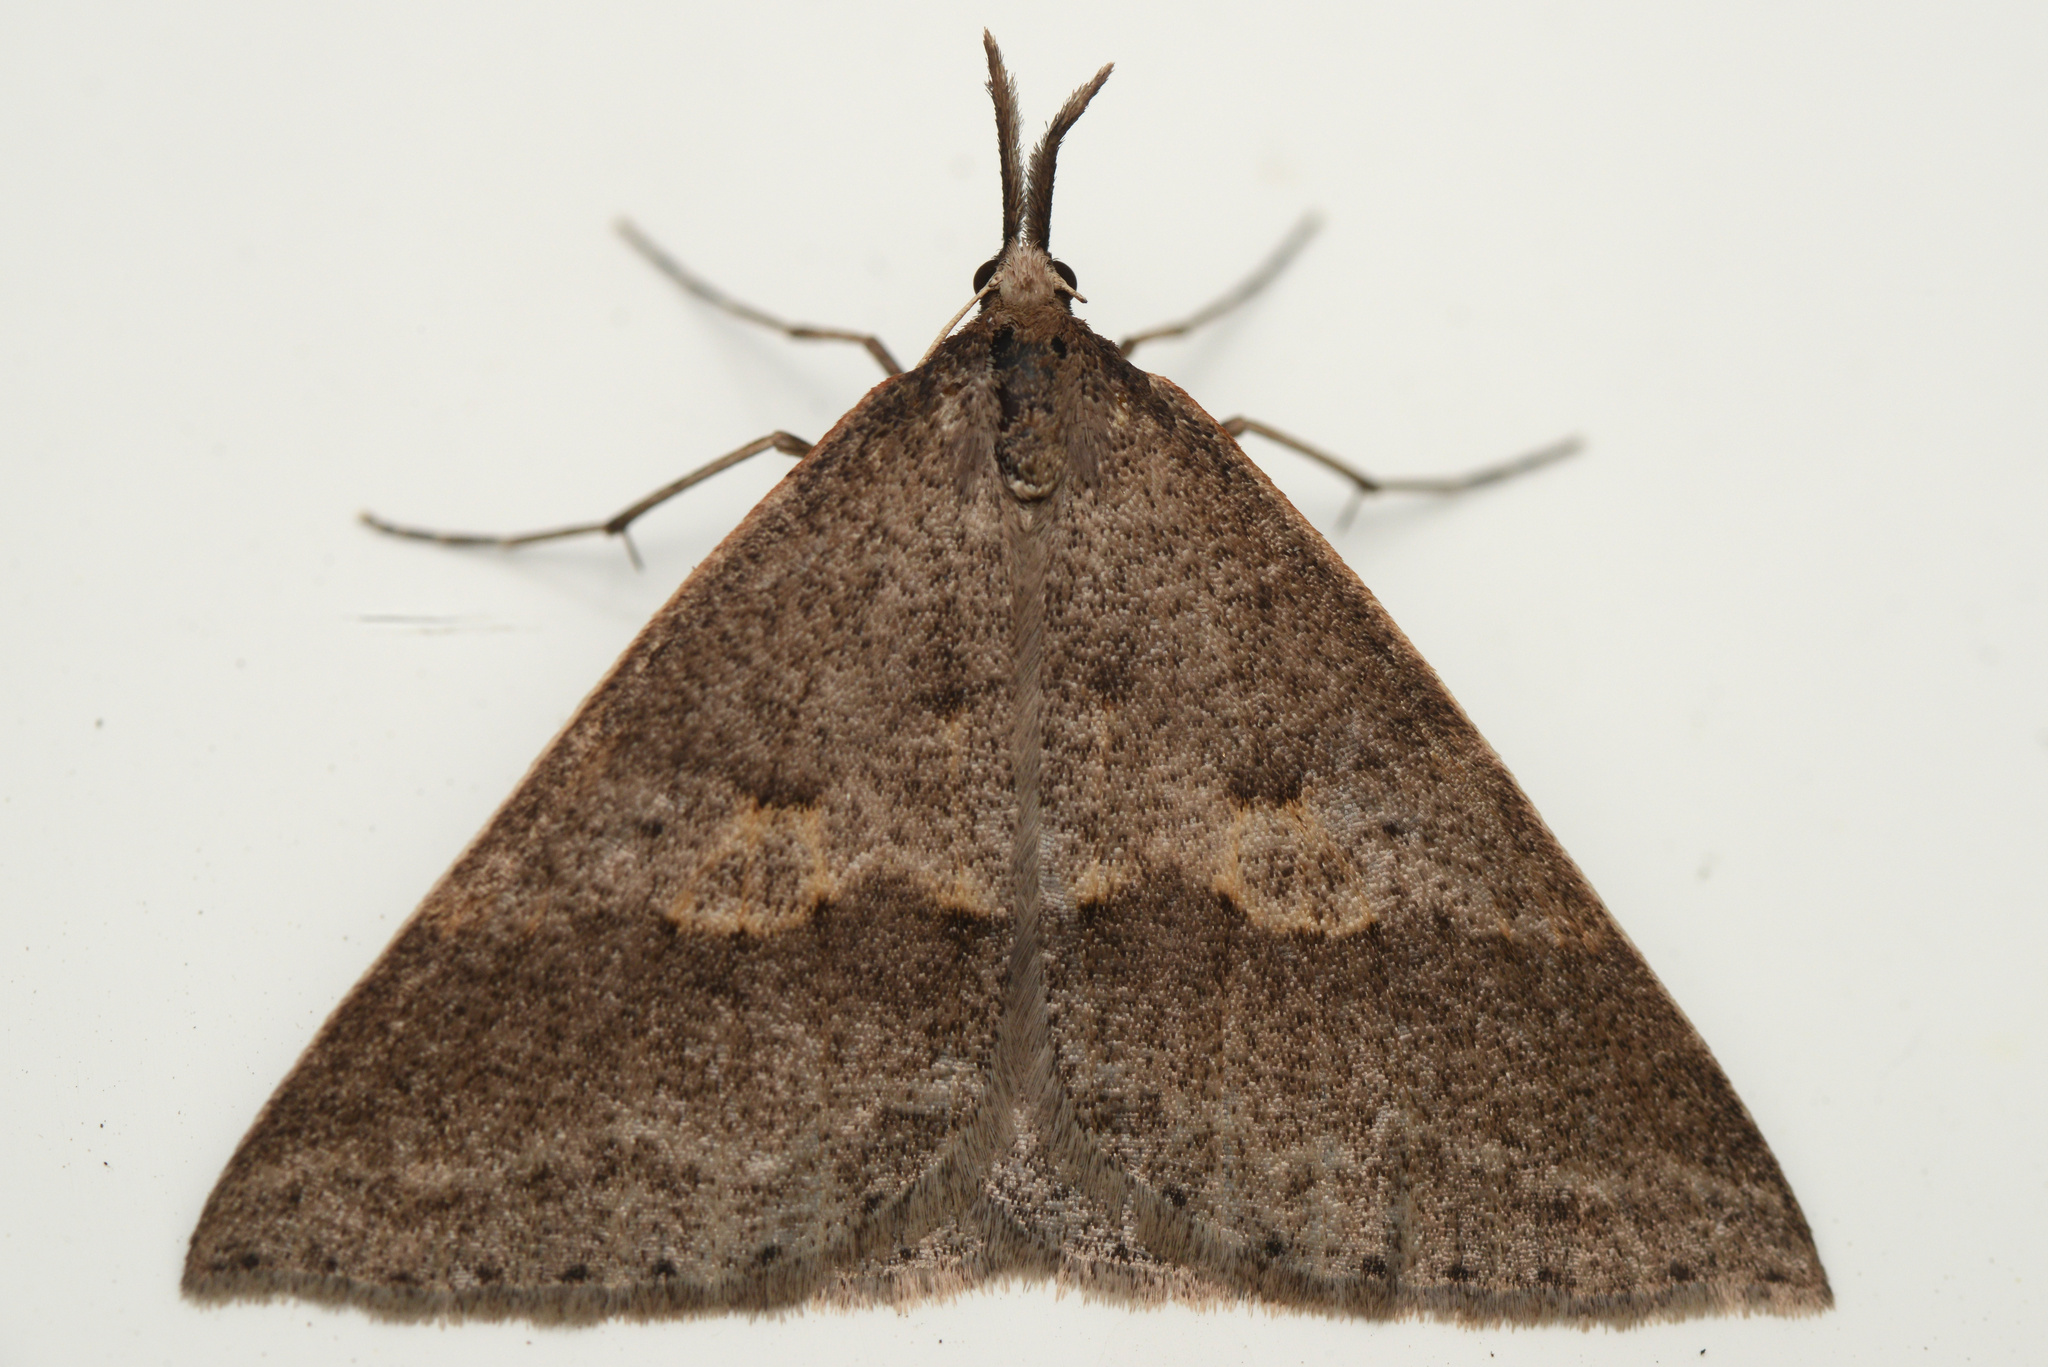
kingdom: Animalia
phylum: Arthropoda
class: Insecta
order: Lepidoptera
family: Geometridae
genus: Epidesmia
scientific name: Epidesmia hypenaria
